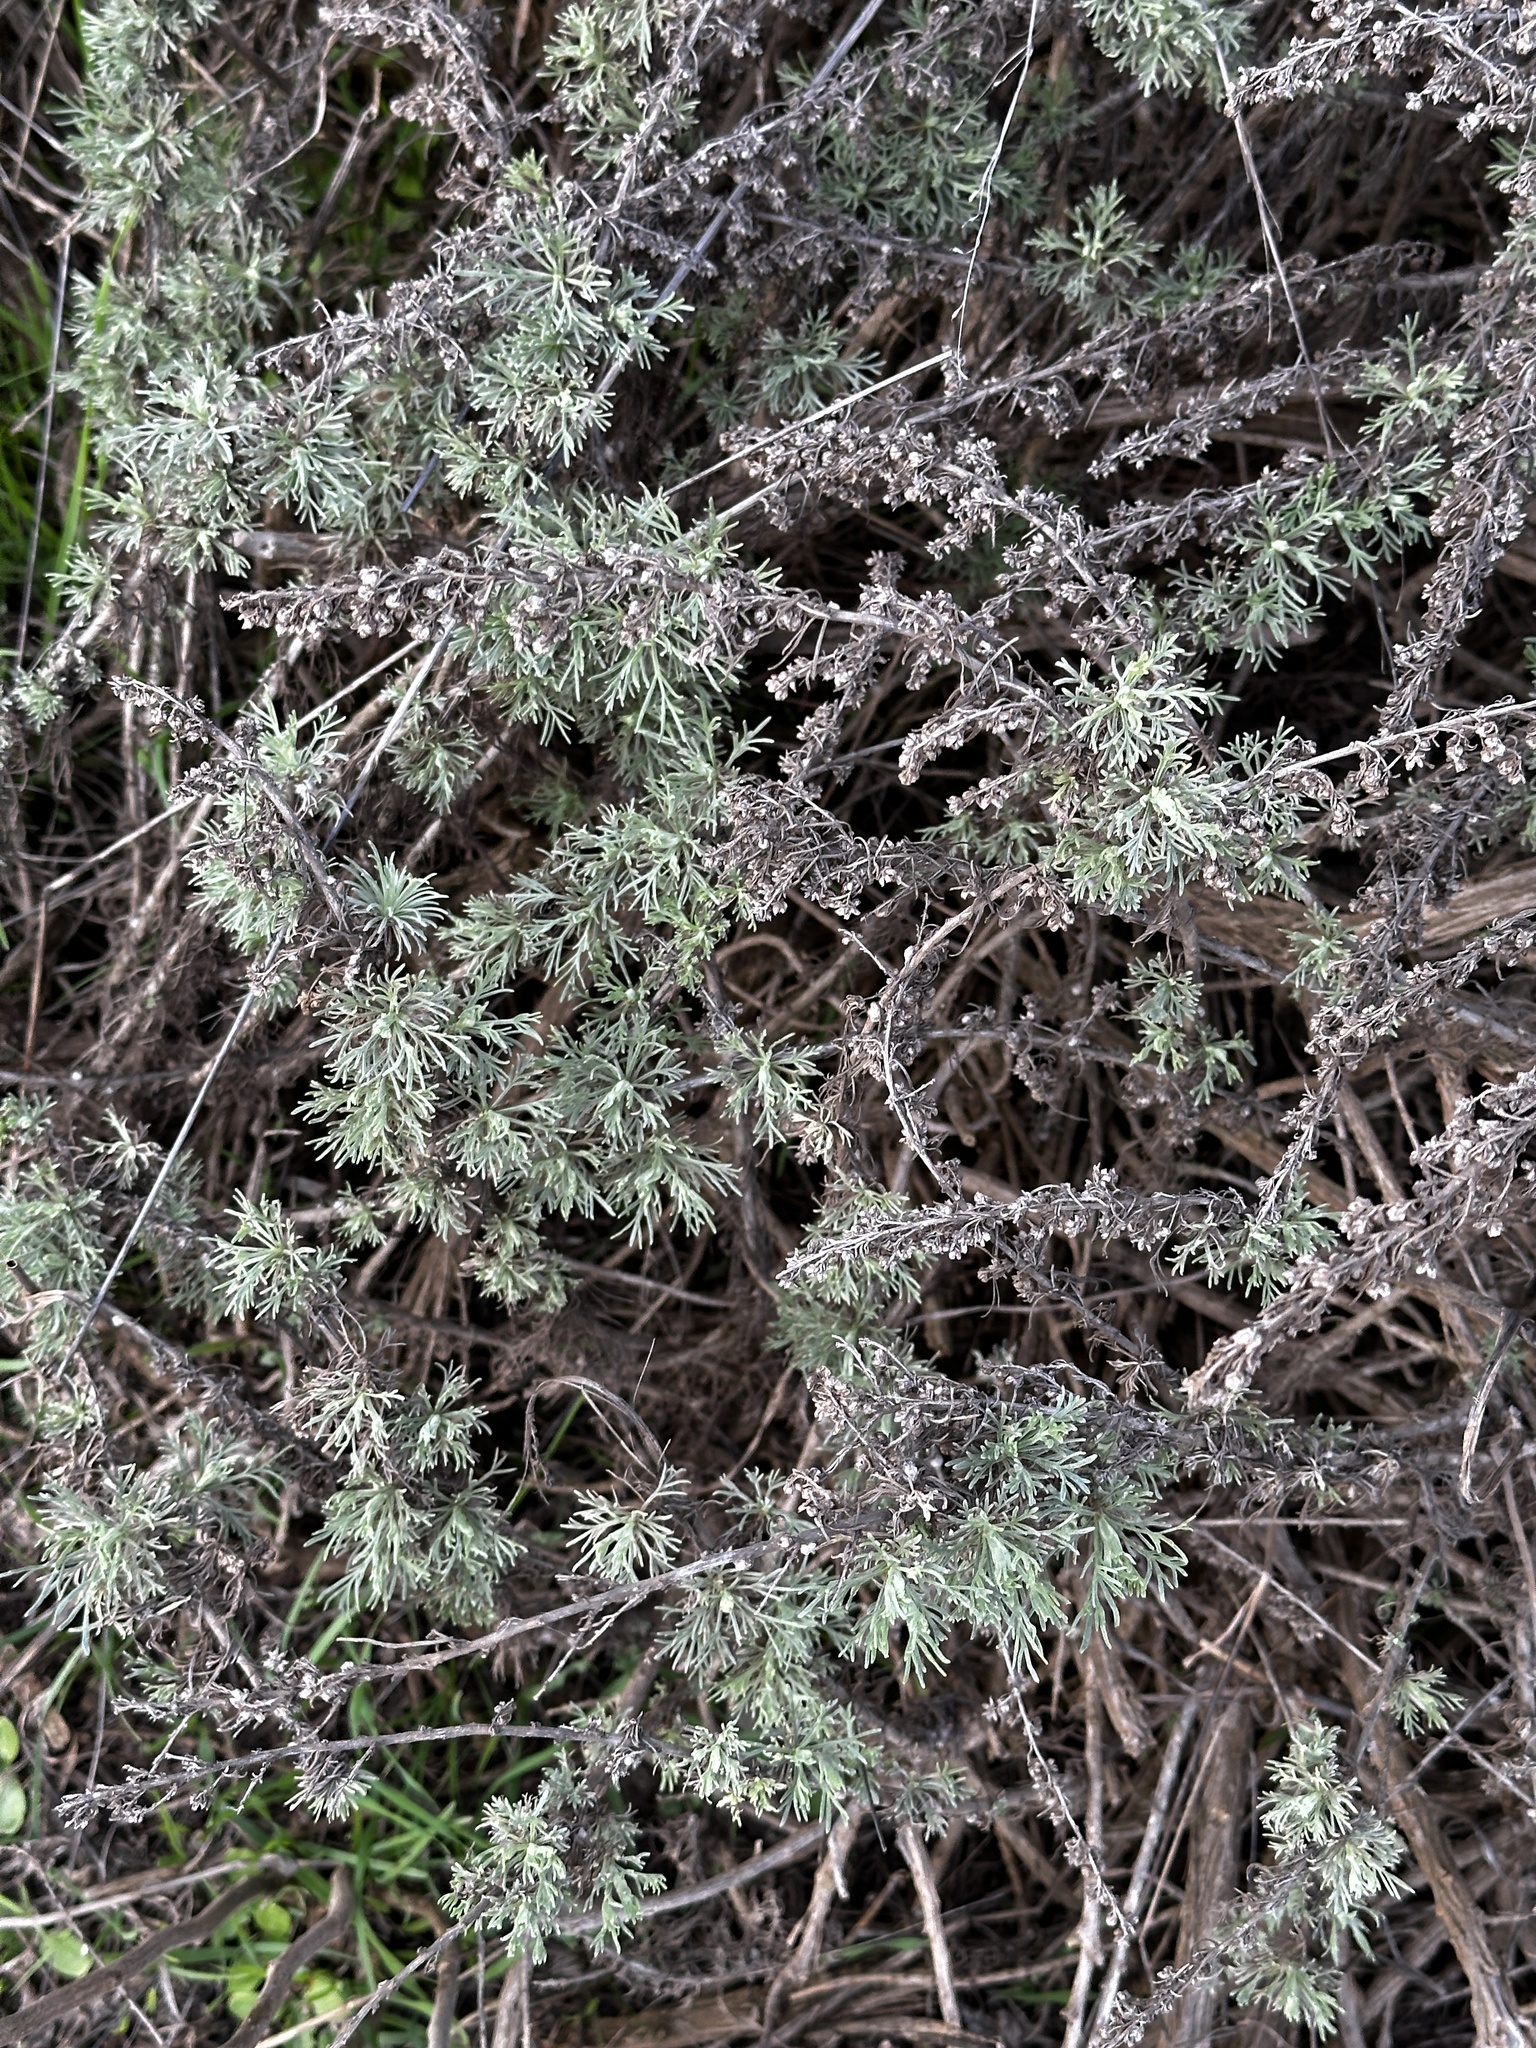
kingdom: Plantae
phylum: Tracheophyta
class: Magnoliopsida
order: Asterales
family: Asteraceae
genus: Artemisia
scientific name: Artemisia californica
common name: California sagebrush
